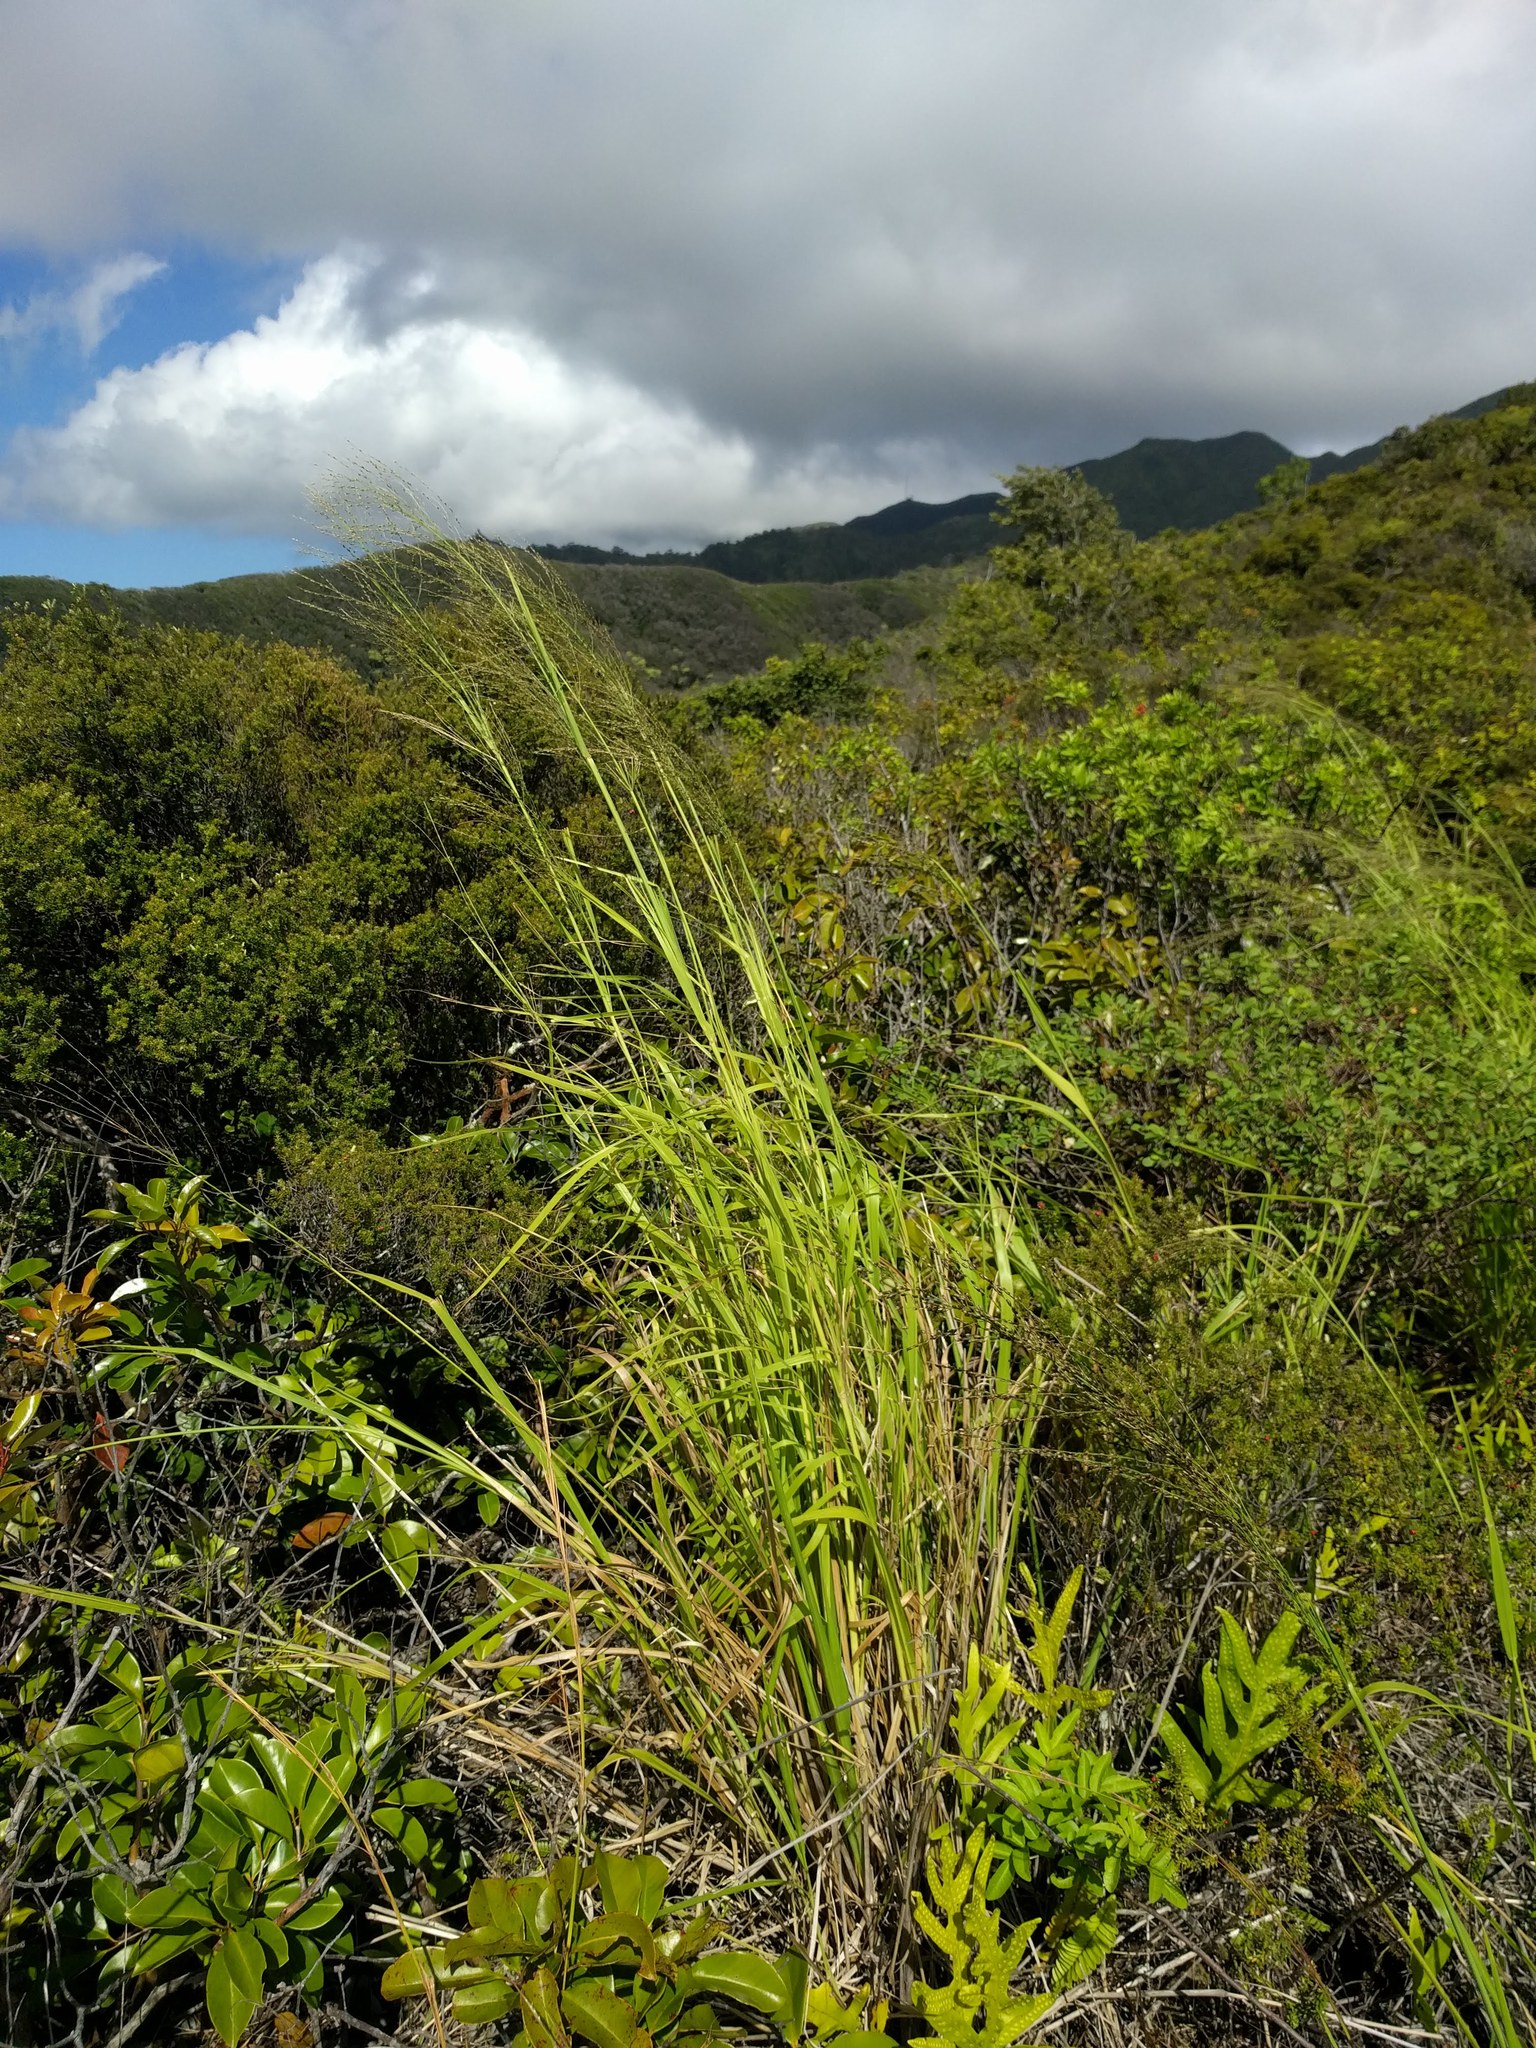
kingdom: Plantae
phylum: Tracheophyta
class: Liliopsida
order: Poales
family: Poaceae
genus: Megathyrsus
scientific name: Megathyrsus maximus
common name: Guineagrass
